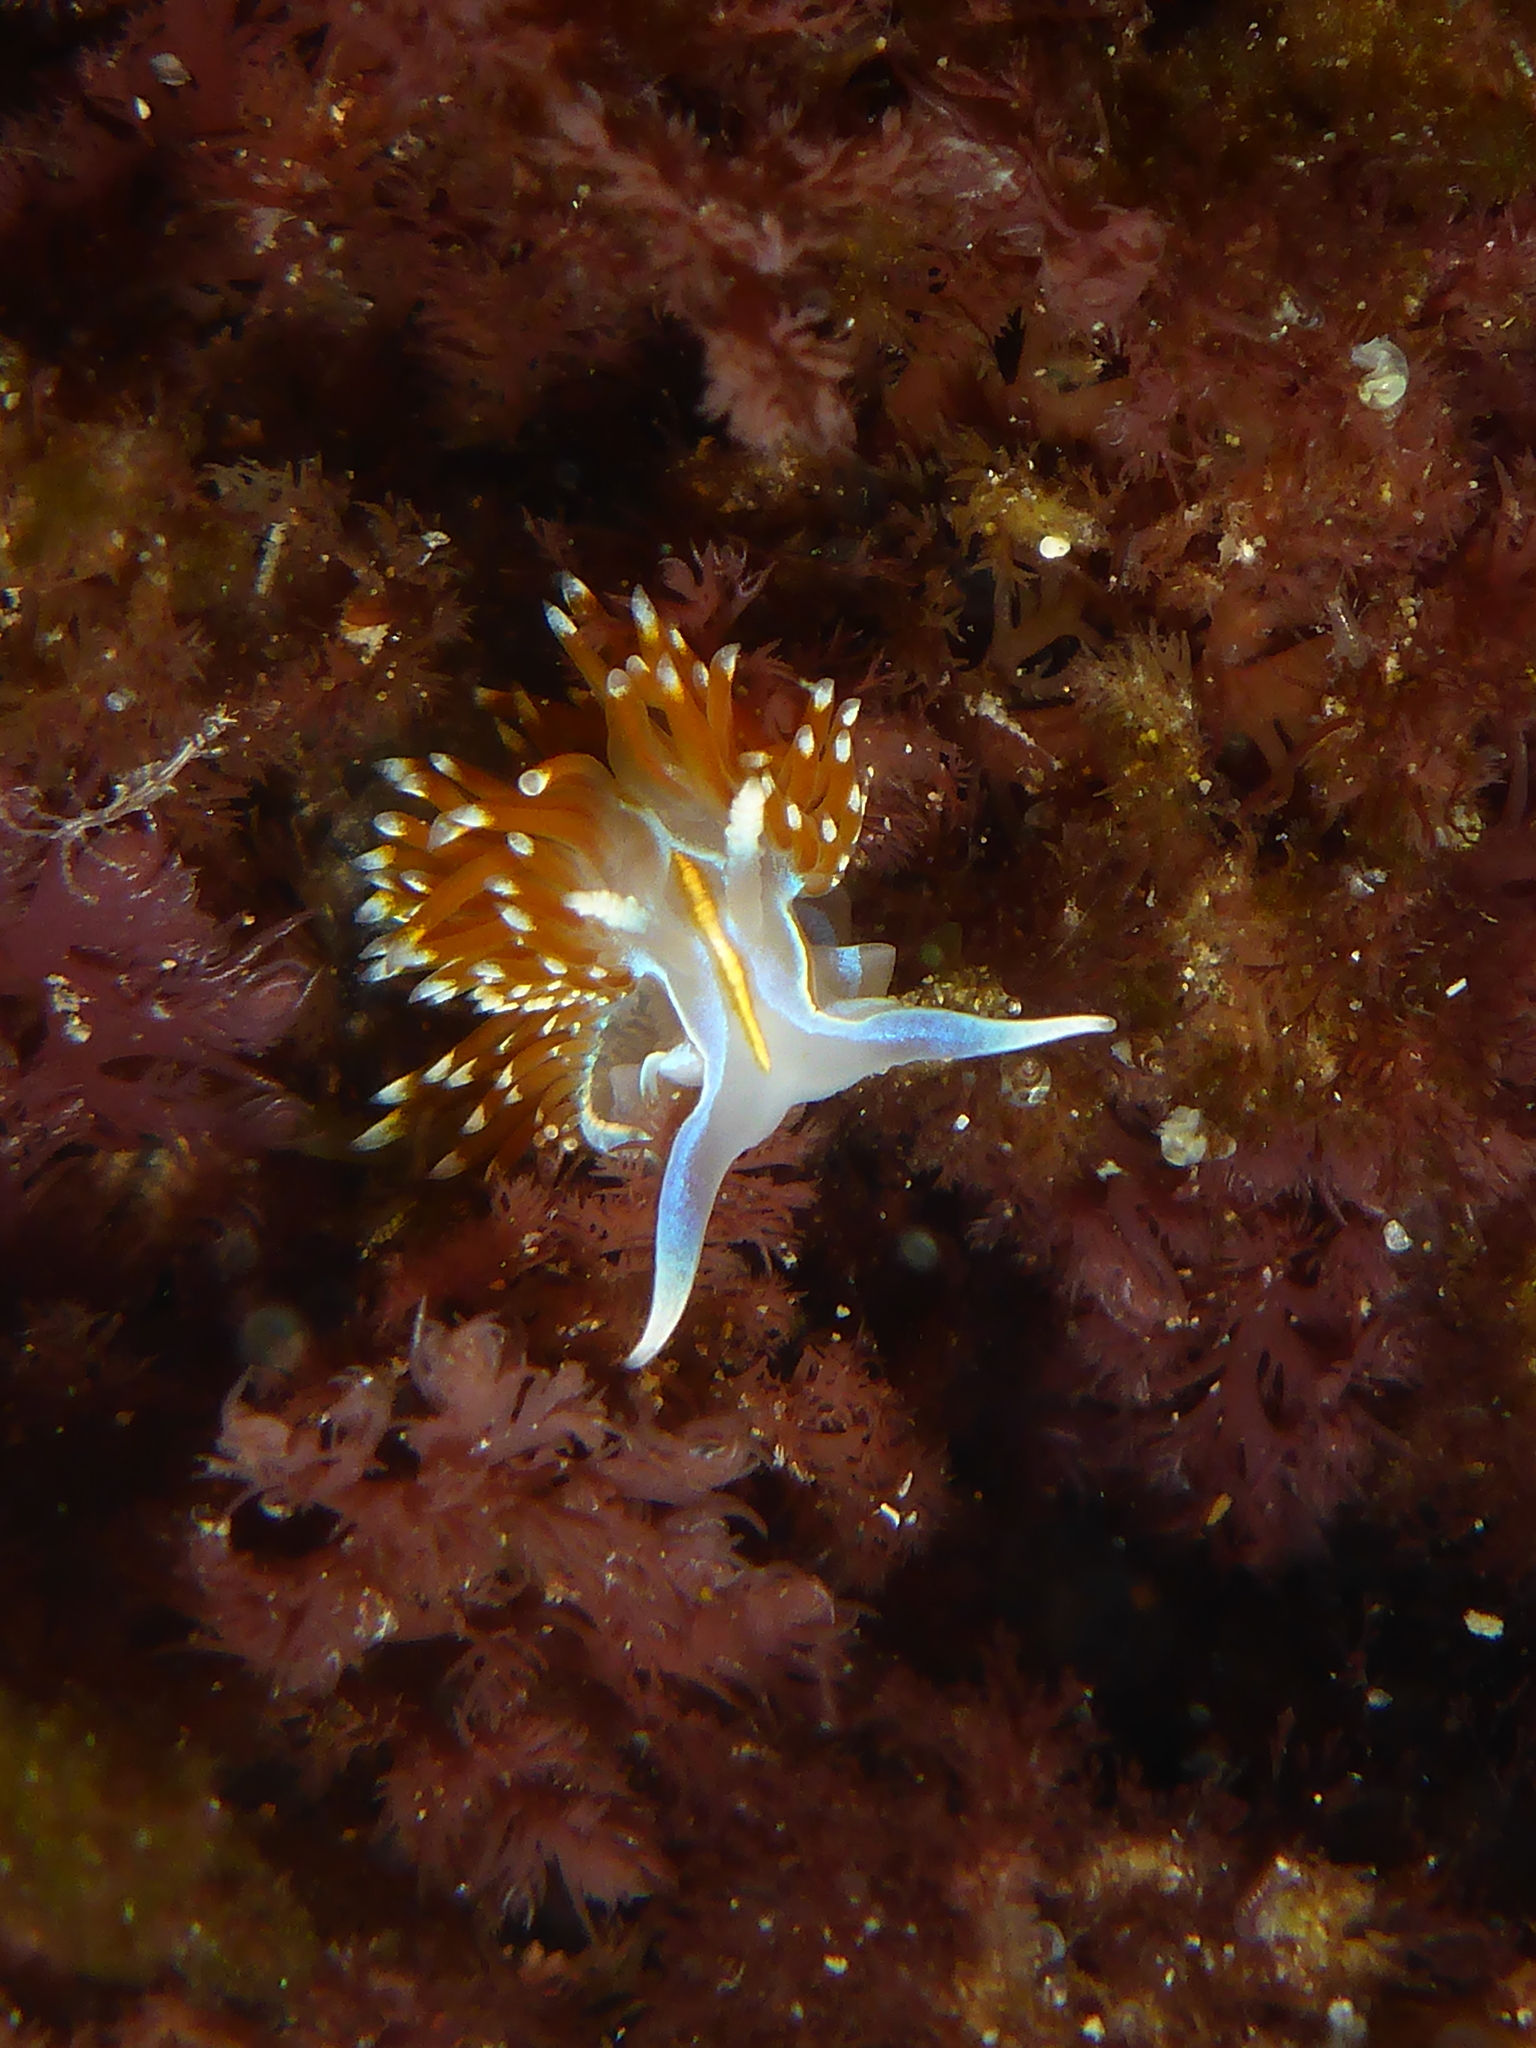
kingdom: Animalia
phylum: Mollusca
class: Gastropoda
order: Nudibranchia
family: Myrrhinidae
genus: Hermissenda
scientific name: Hermissenda opalescens
